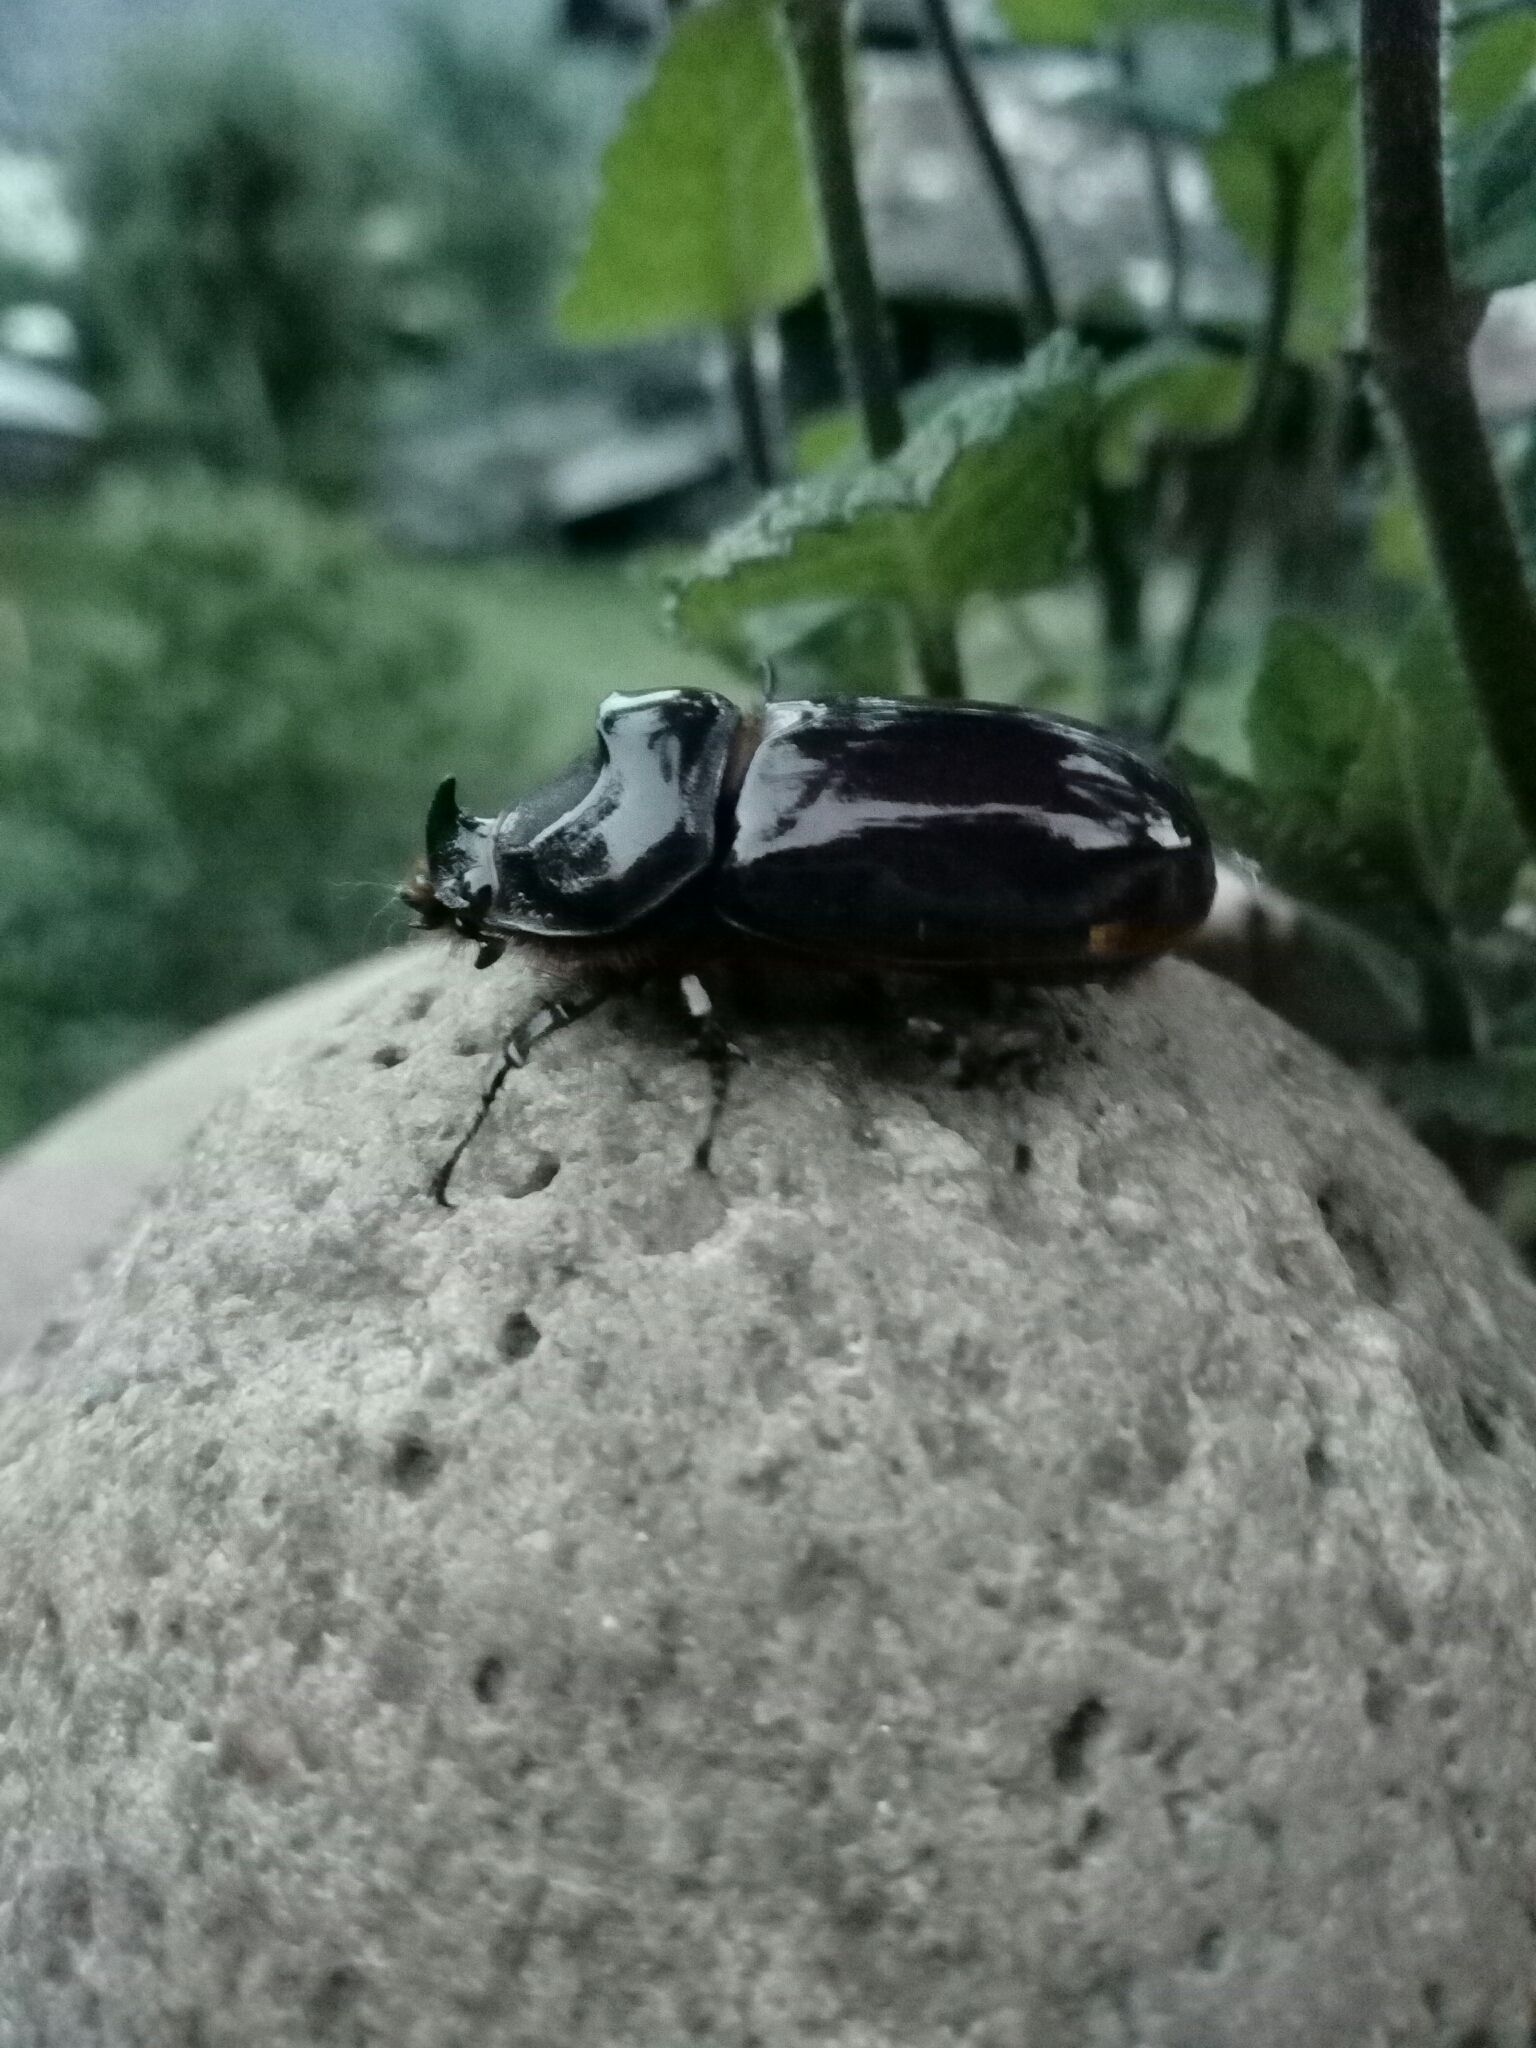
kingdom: Animalia
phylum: Arthropoda
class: Insecta
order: Coleoptera
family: Scarabaeidae
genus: Oryctes
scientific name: Oryctes nasicornis
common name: European rhinoceros beetle
